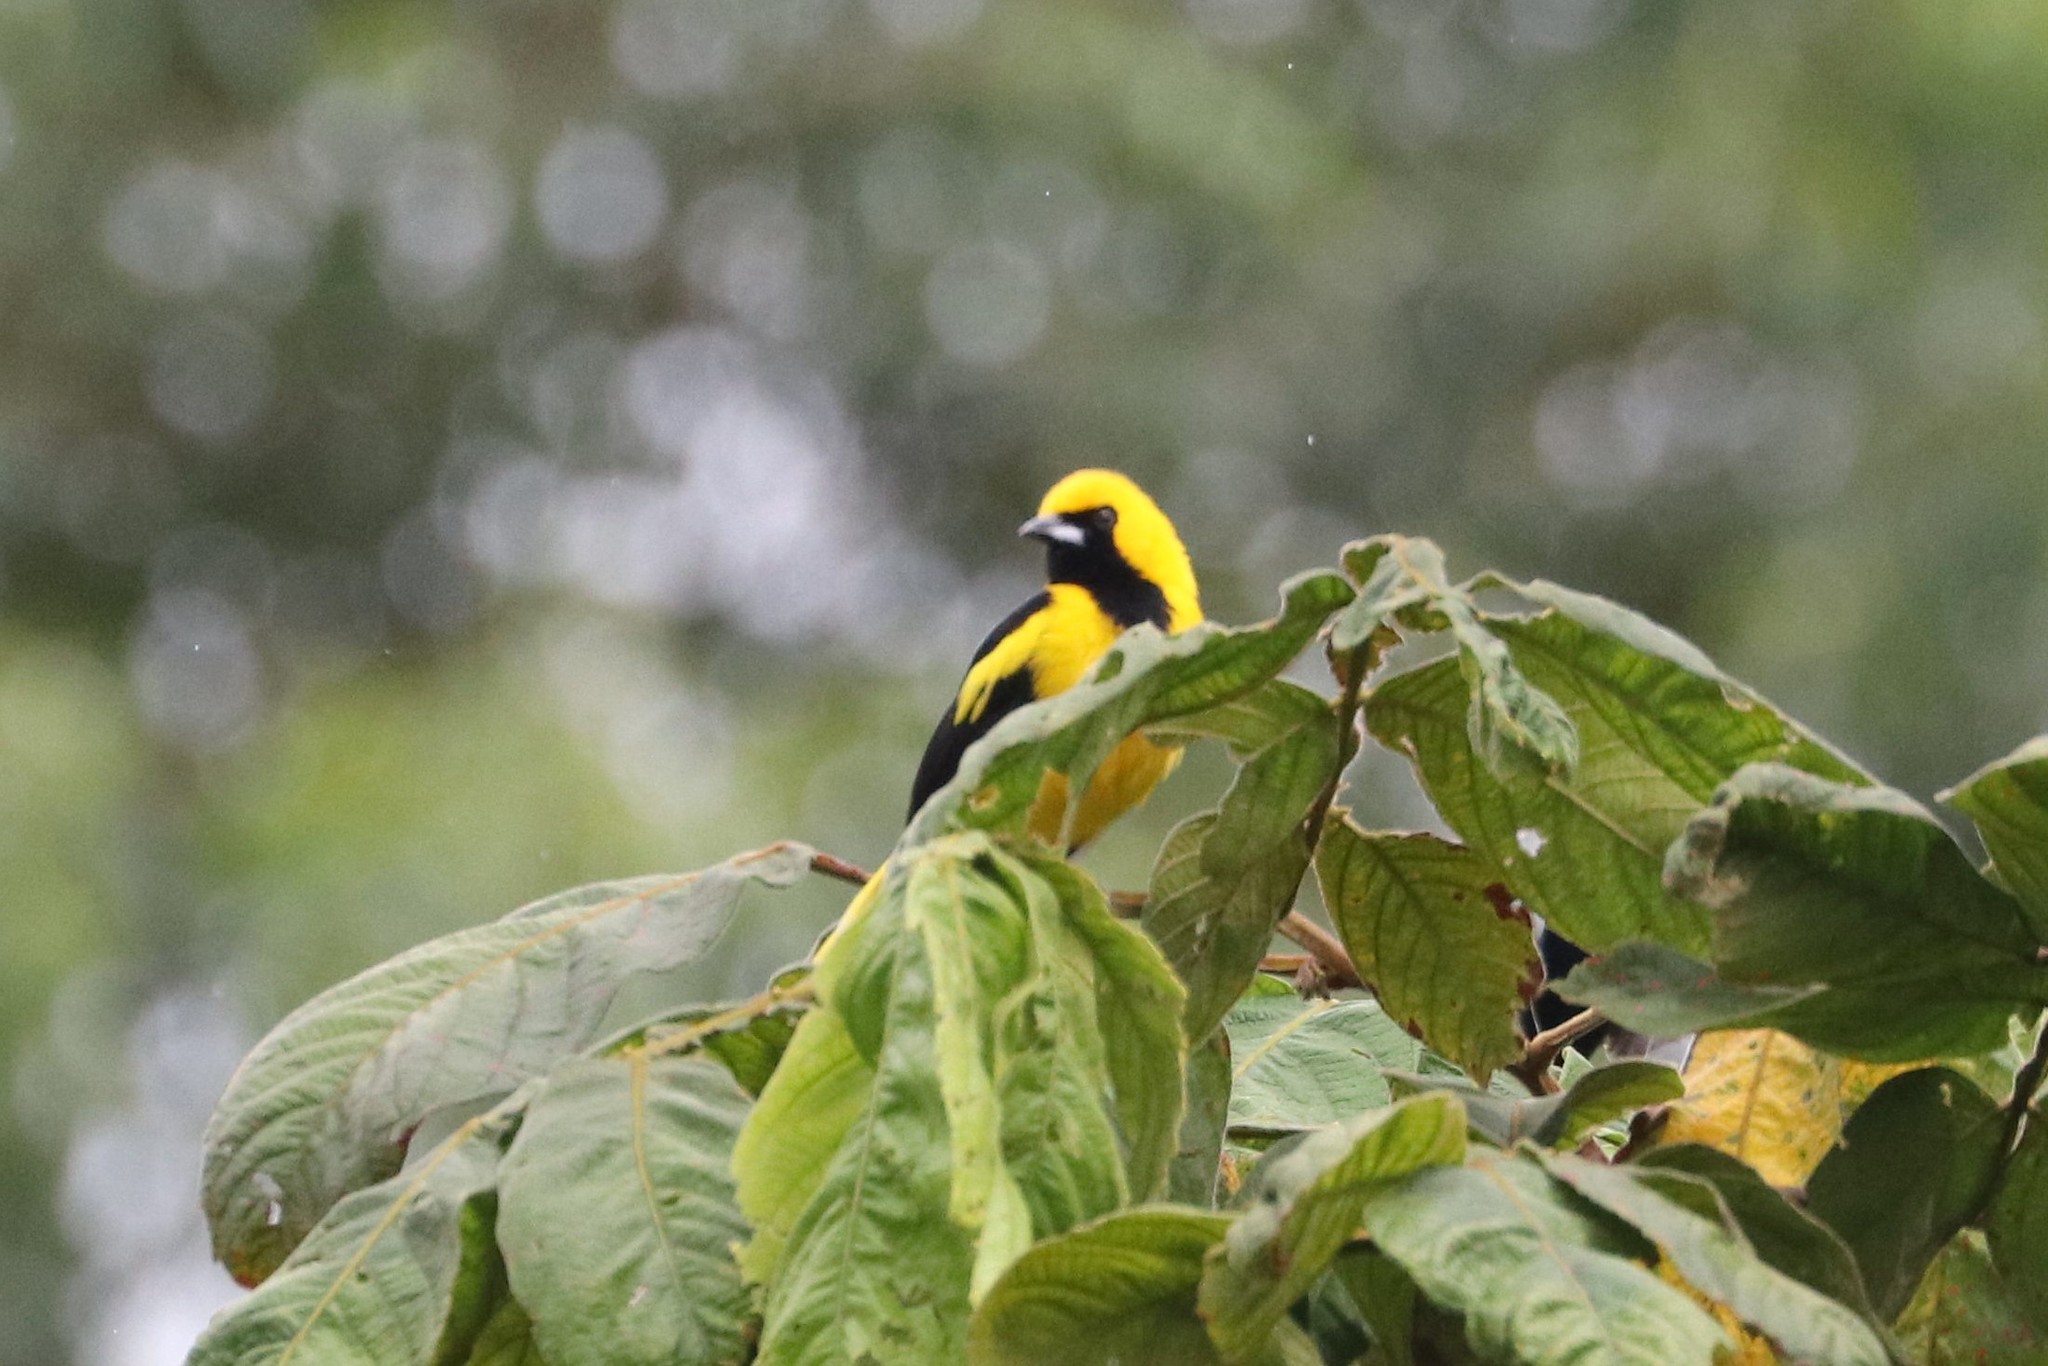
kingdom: Animalia
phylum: Chordata
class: Aves
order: Passeriformes
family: Icteridae
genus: Icterus
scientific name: Icterus chrysater
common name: Yellow-backed oriole
